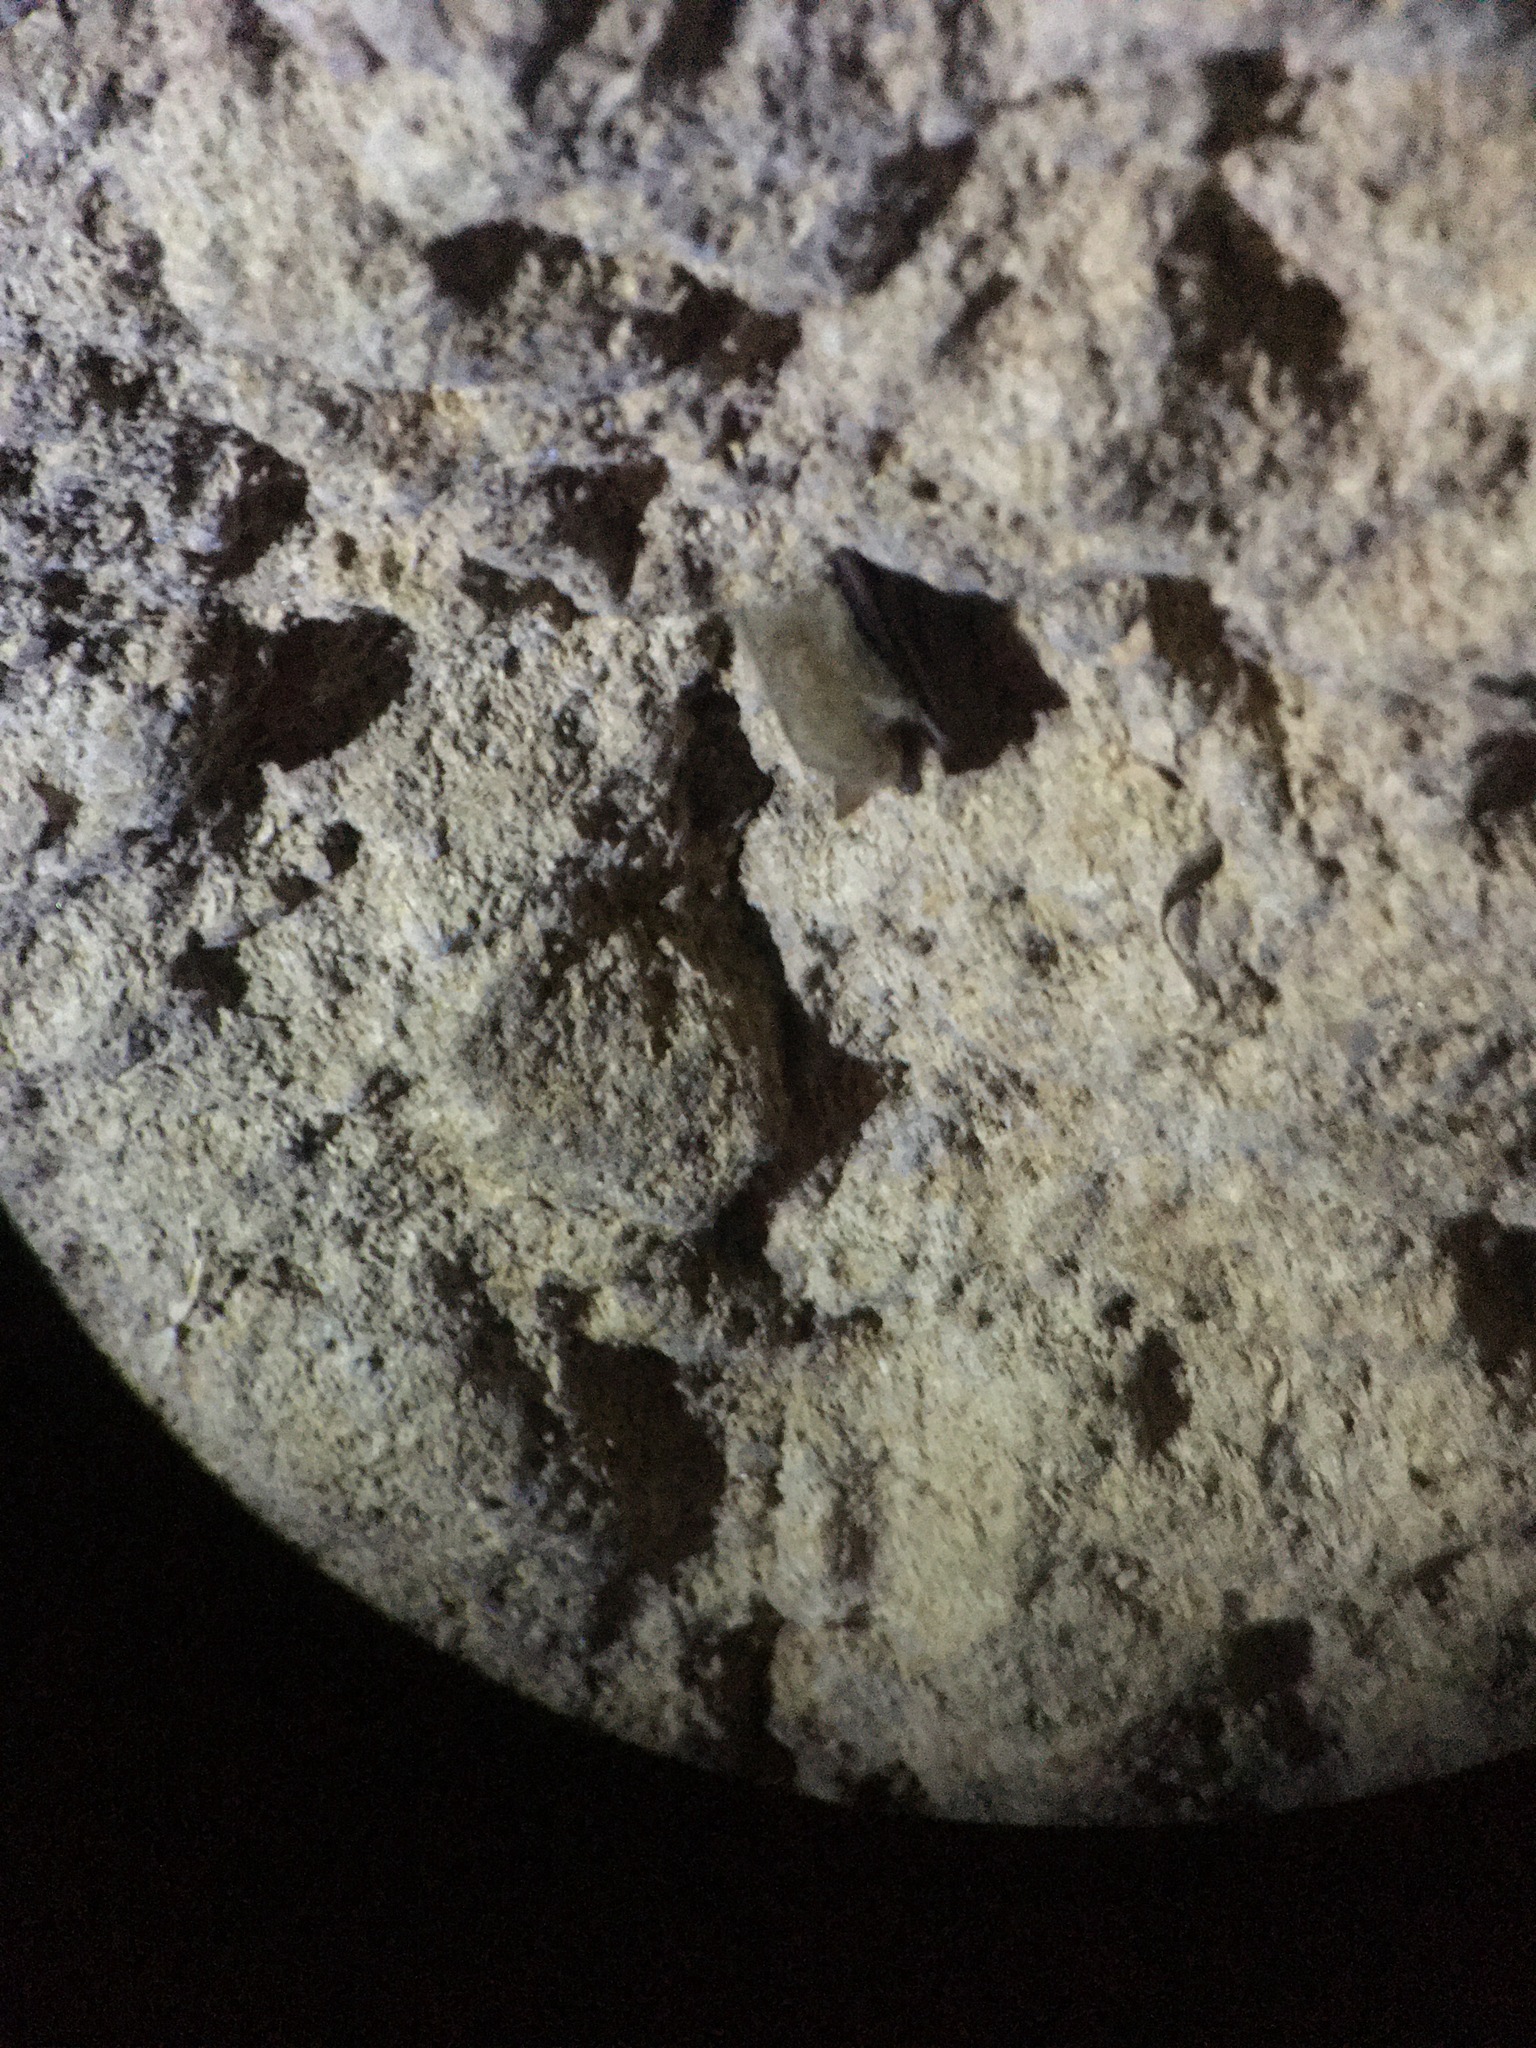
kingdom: Animalia
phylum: Chordata
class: Mammalia
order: Chiroptera
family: Vespertilionidae
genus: Perimyotis
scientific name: Perimyotis subflavus
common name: Eastern pipistrelle
